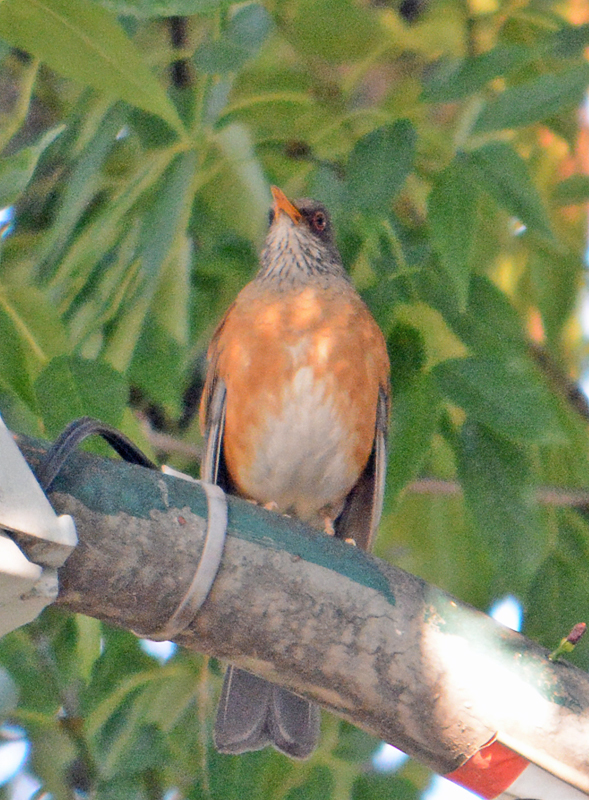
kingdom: Animalia
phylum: Chordata
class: Aves
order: Passeriformes
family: Turdidae
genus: Turdus
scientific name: Turdus rufopalliatus
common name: Rufous-backed robin
